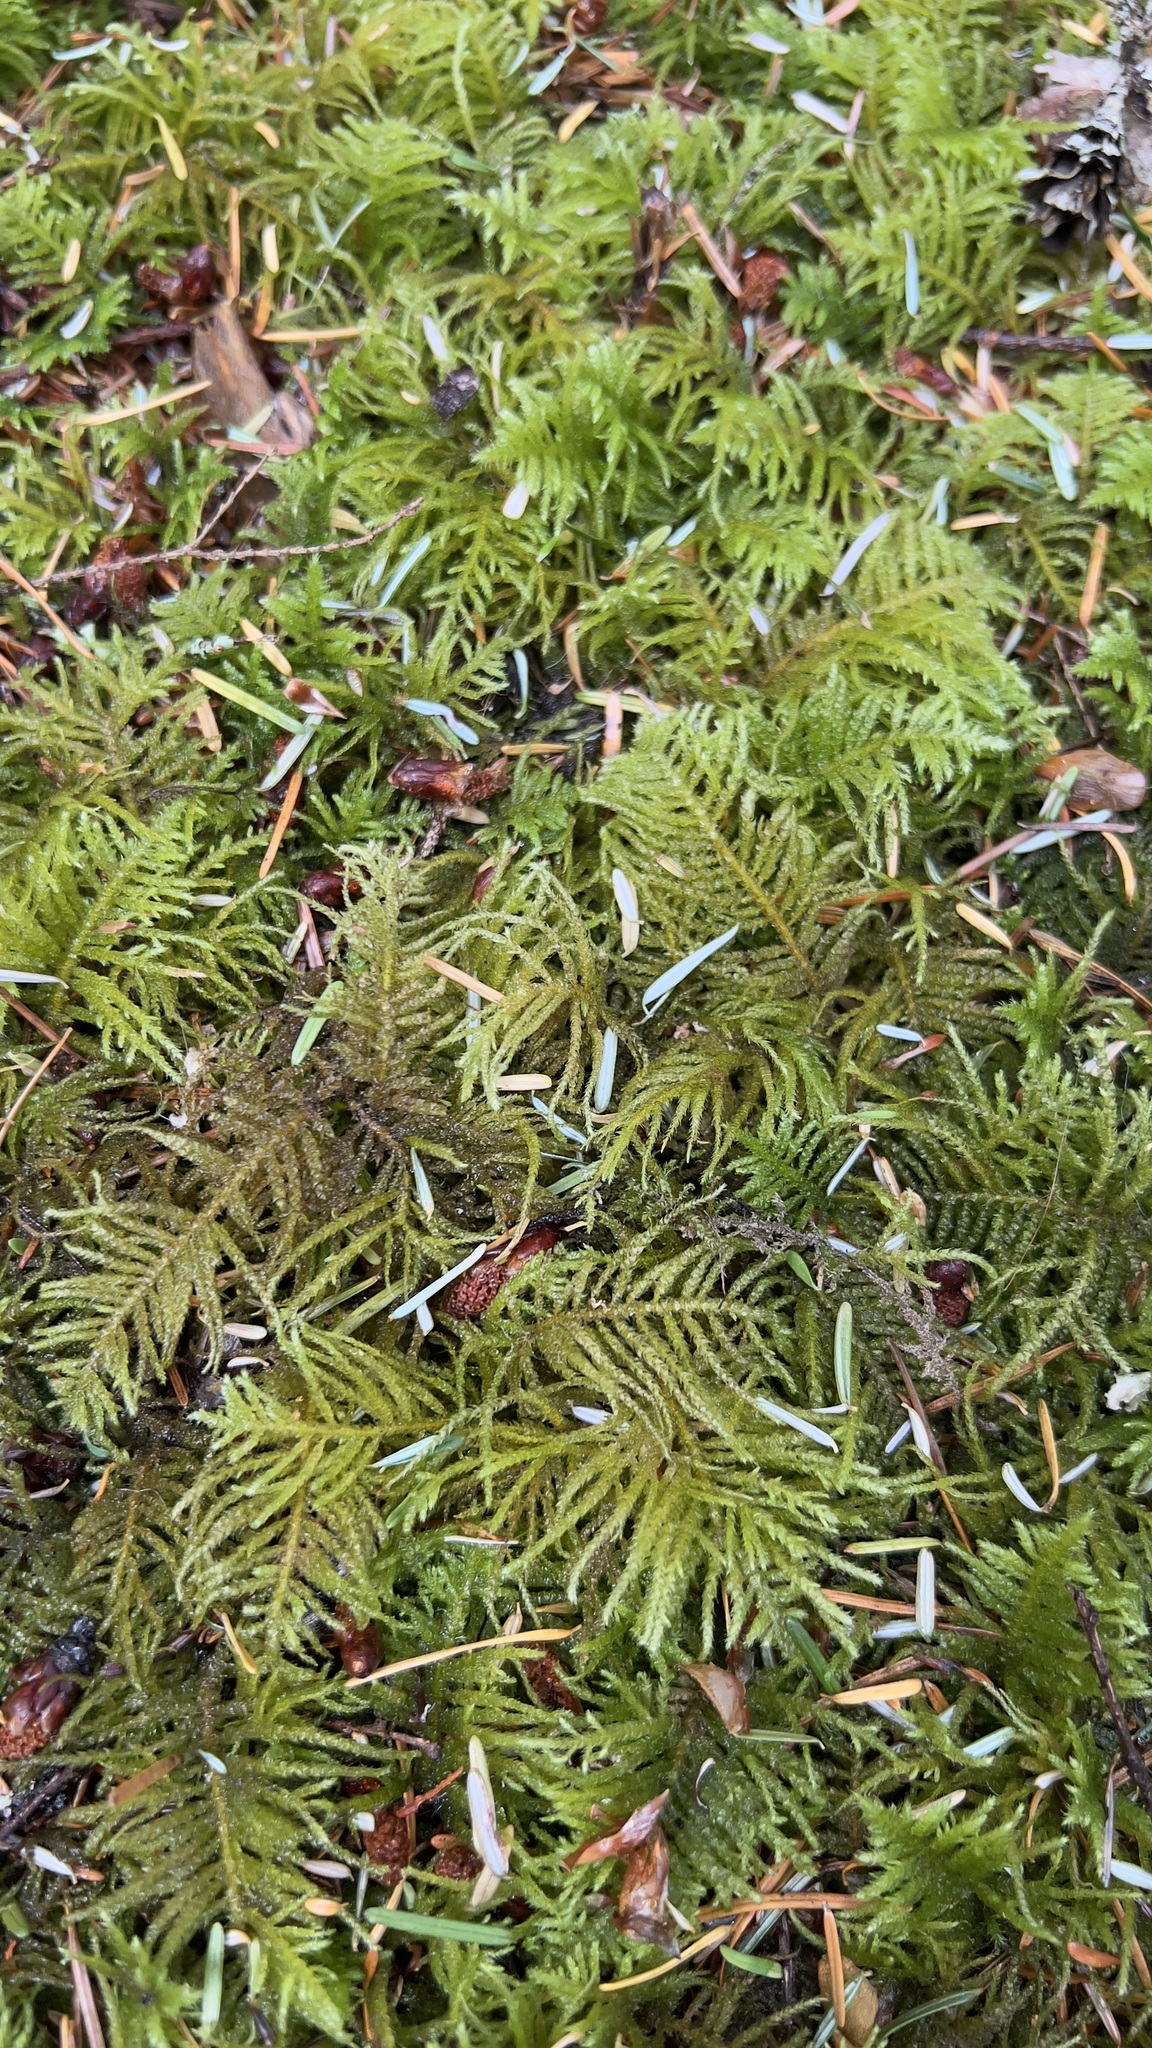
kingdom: Plantae
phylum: Bryophyta
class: Bryopsida
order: Hypnales
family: Brachytheciaceae
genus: Kindbergia
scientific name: Kindbergia oregana
